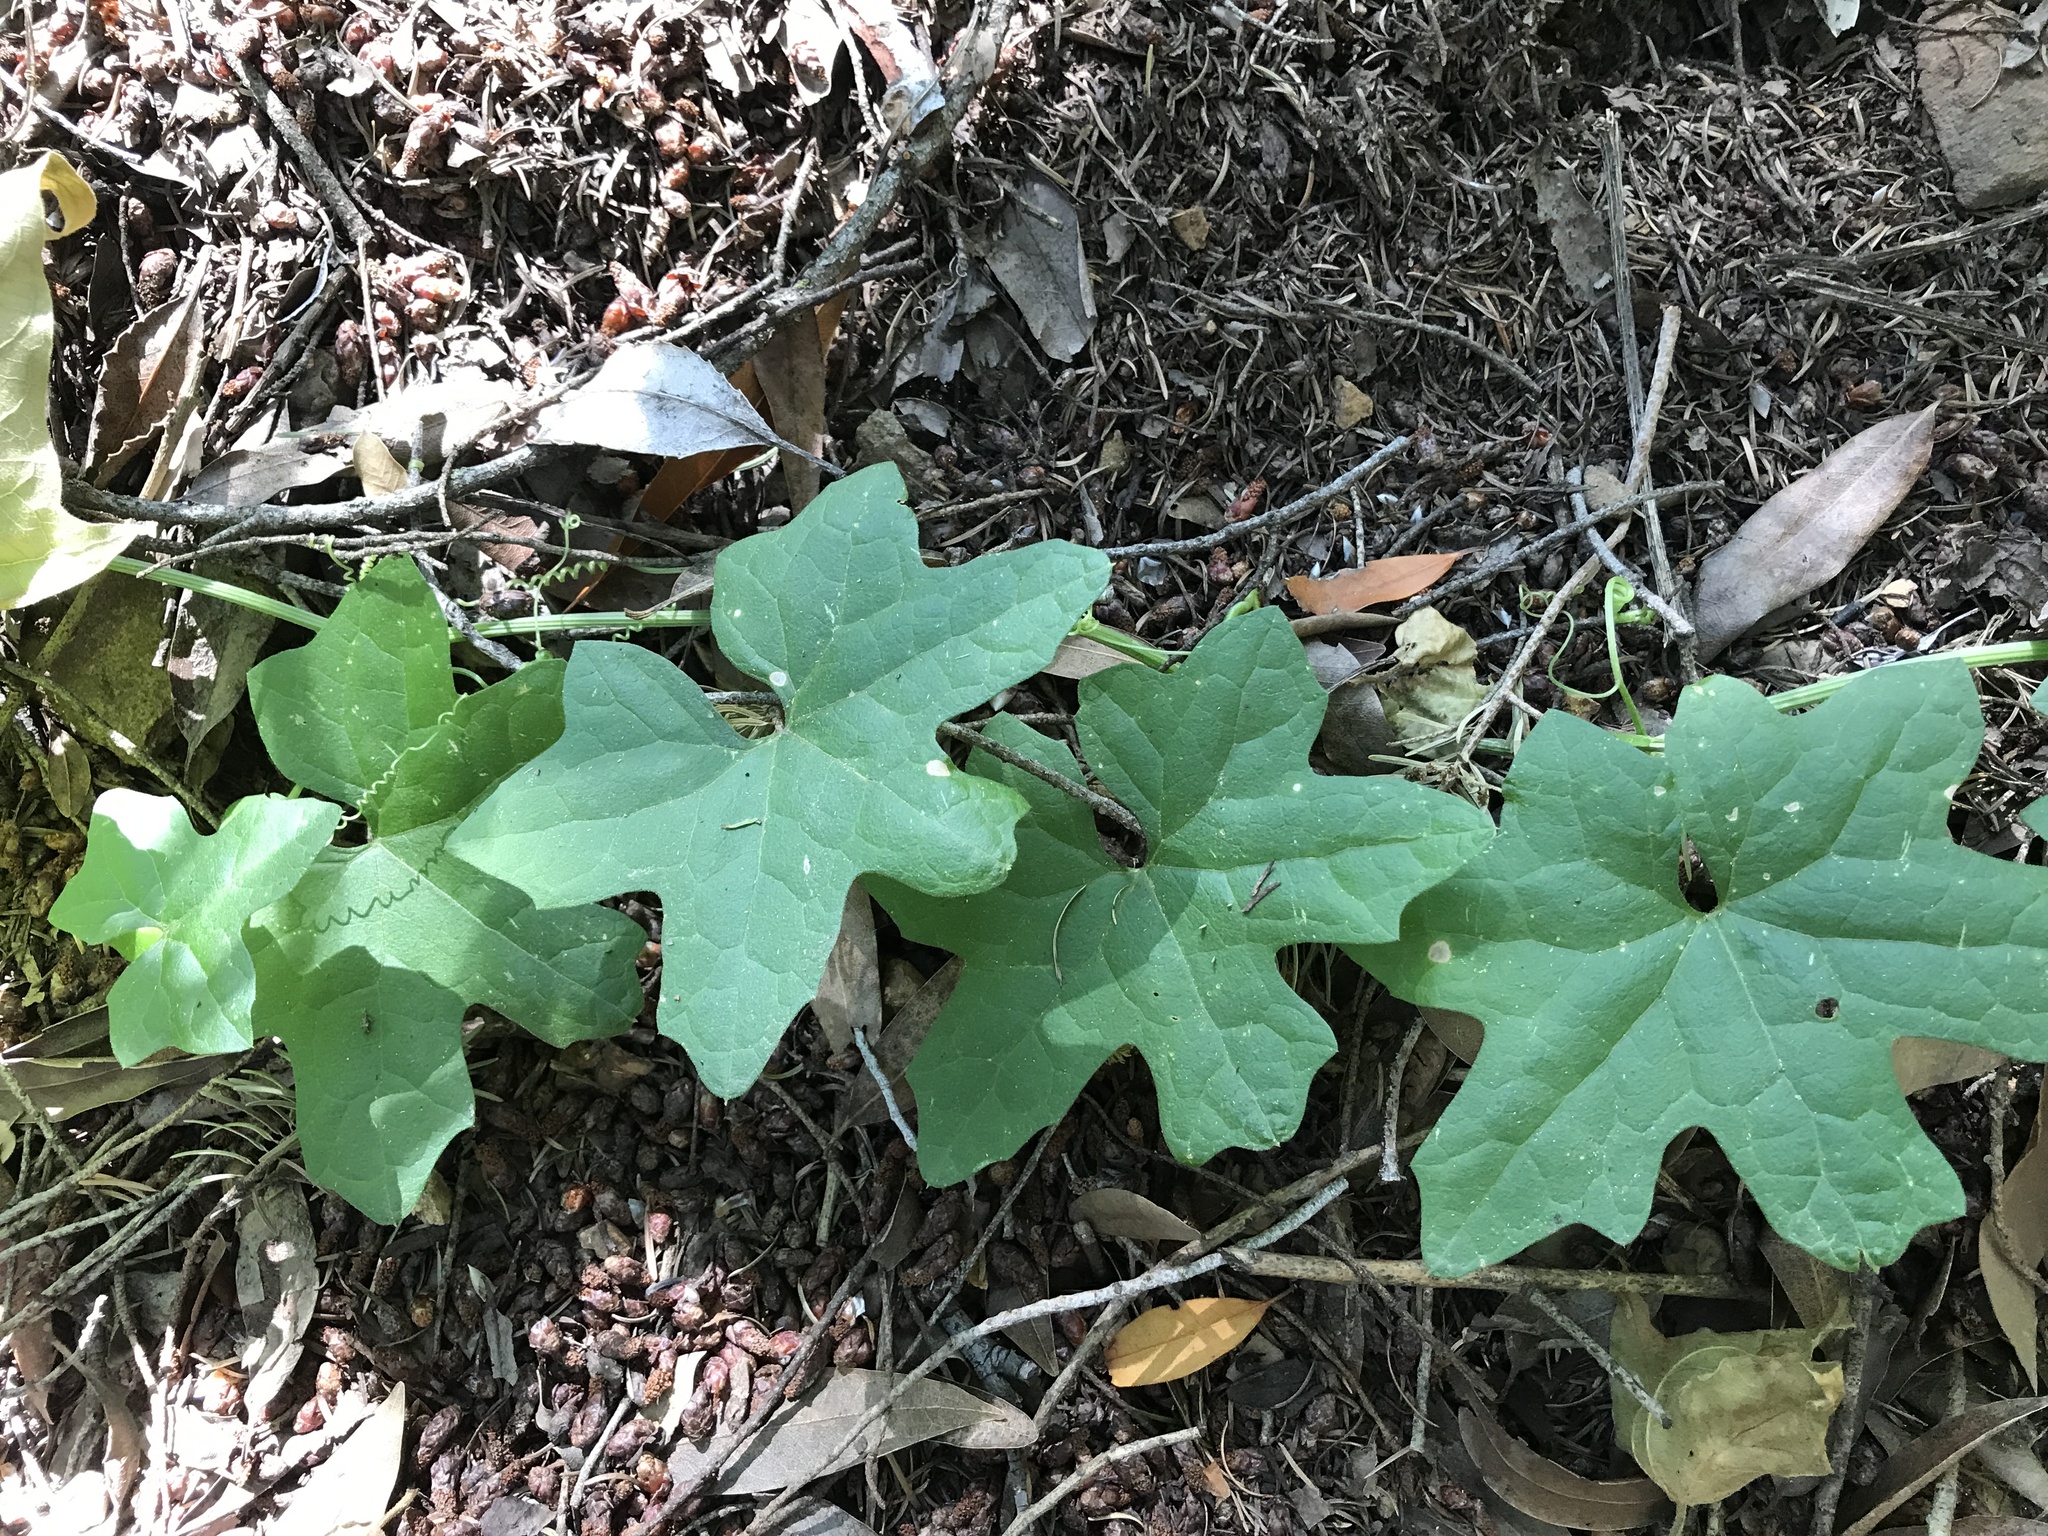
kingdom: Plantae
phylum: Tracheophyta
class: Magnoliopsida
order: Cucurbitales
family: Cucurbitaceae
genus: Marah
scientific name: Marah macrocarpa
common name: Cucamonga manroot
